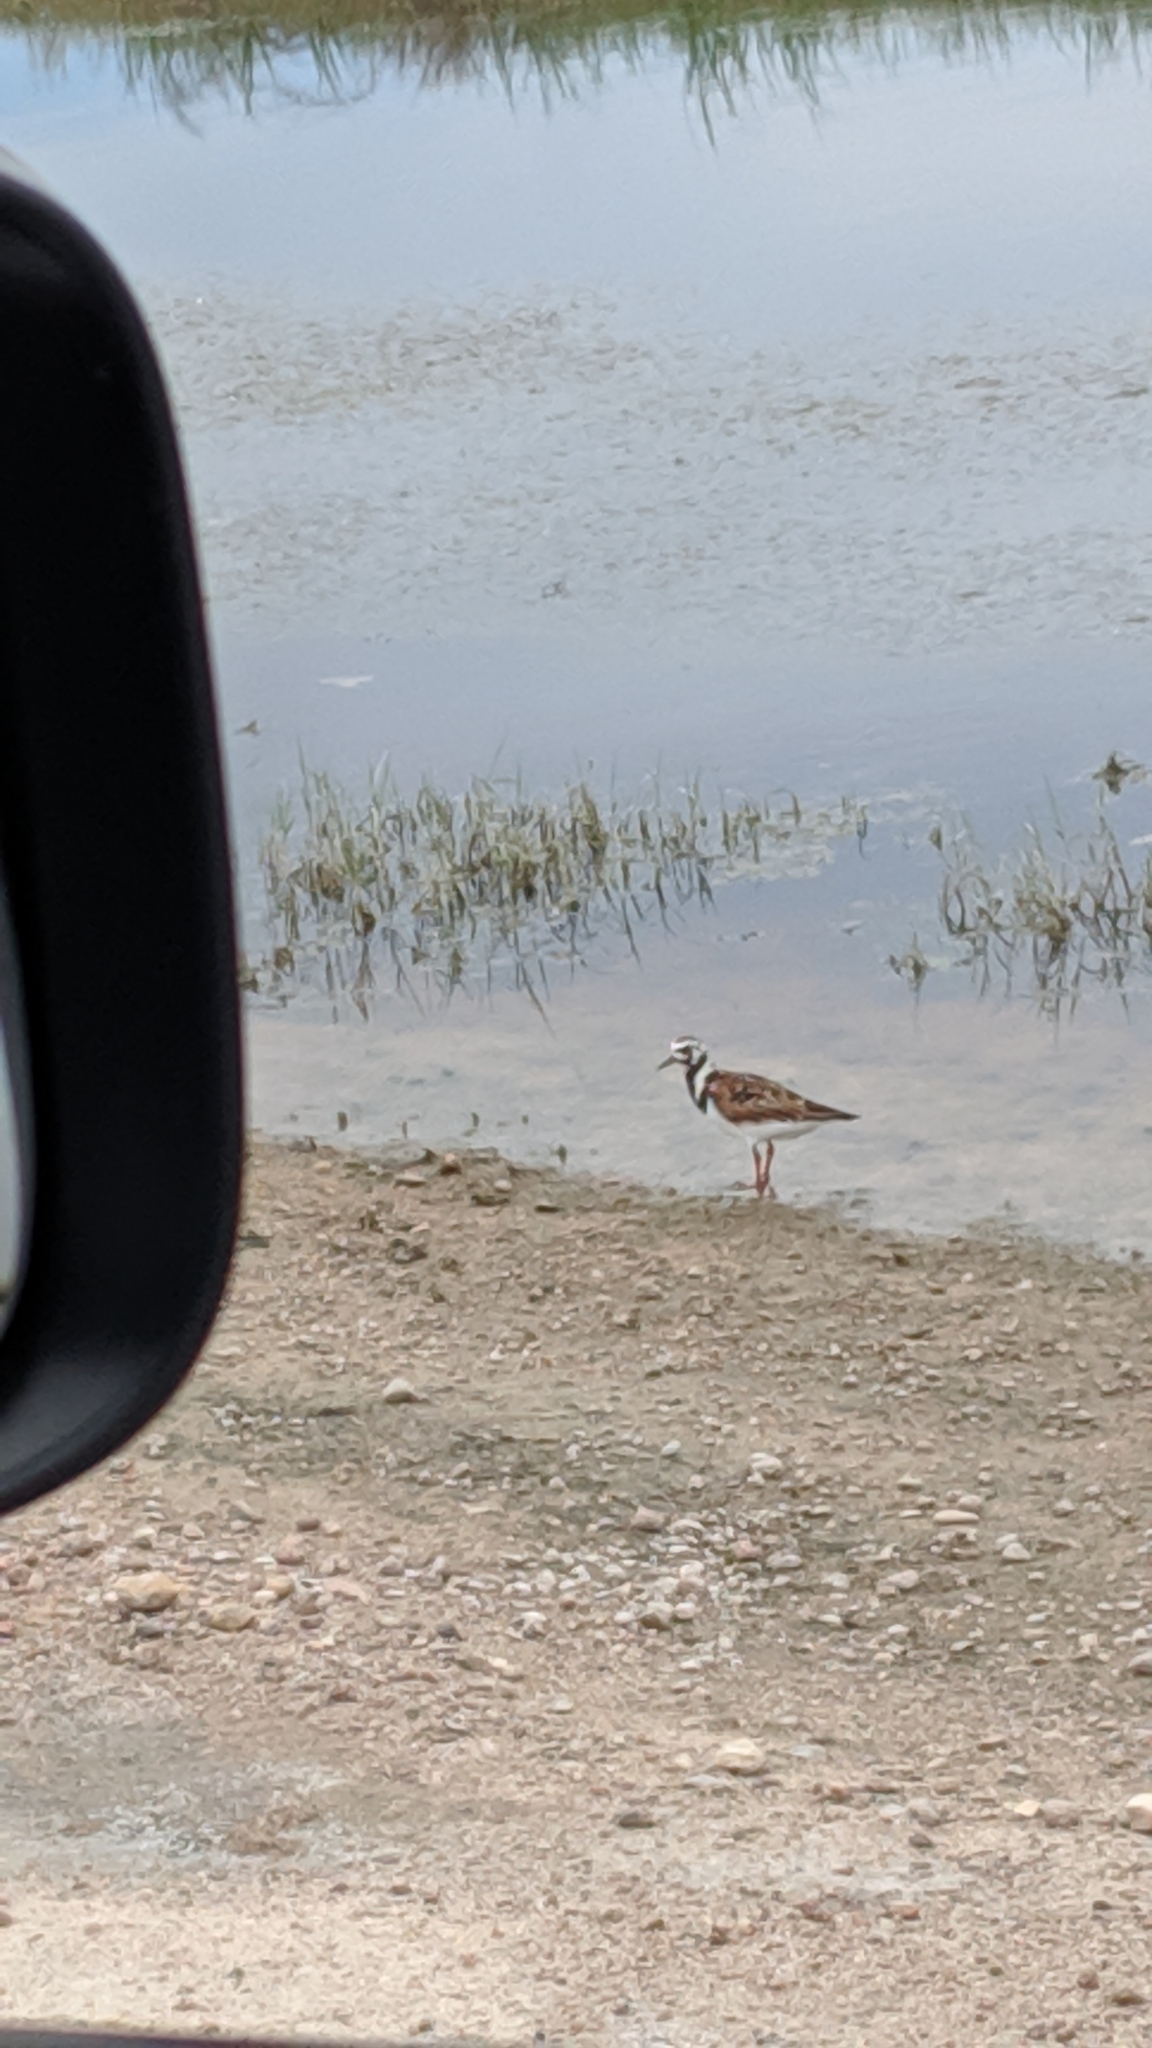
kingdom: Animalia
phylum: Chordata
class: Aves
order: Charadriiformes
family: Scolopacidae
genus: Arenaria
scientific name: Arenaria interpres
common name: Ruddy turnstone
